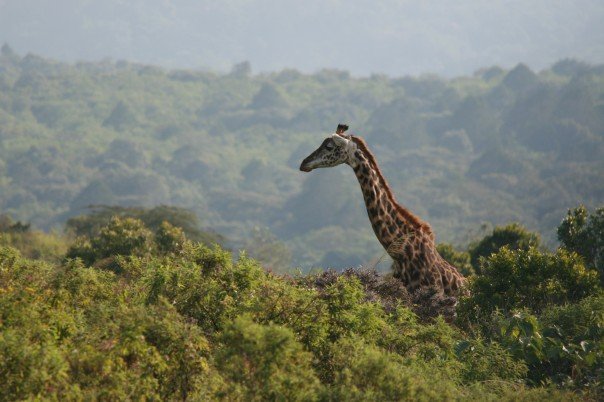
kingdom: Animalia
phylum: Chordata
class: Mammalia
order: Artiodactyla
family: Giraffidae
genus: Giraffa
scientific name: Giraffa tippelskirchi
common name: Masai giraffe
